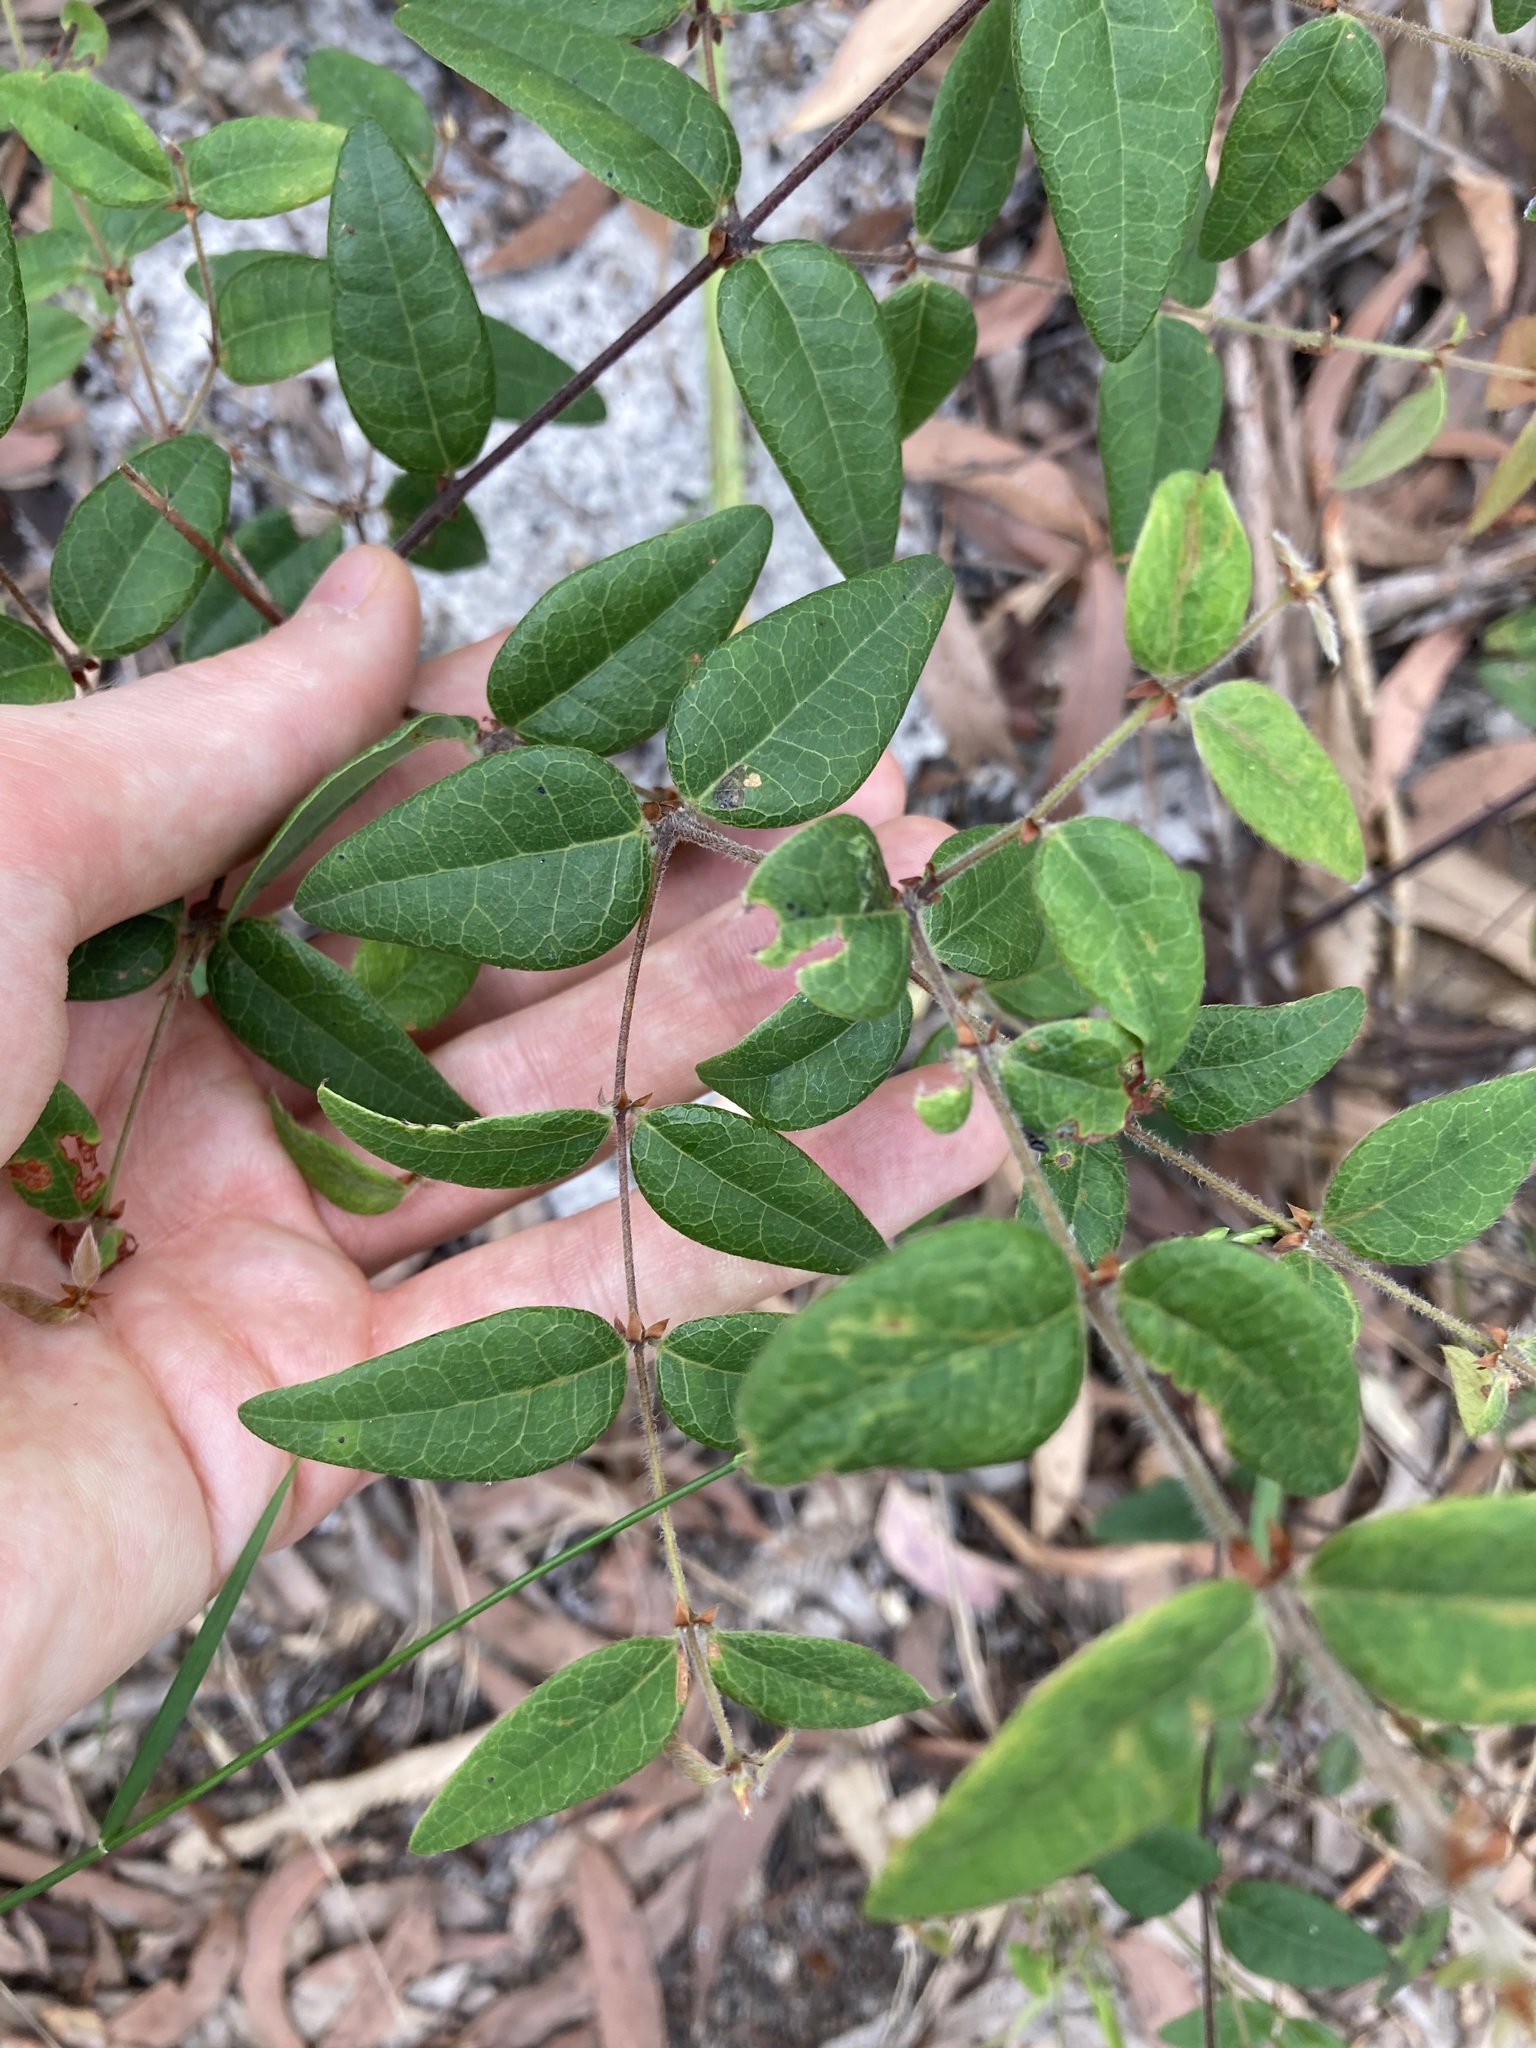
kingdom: Plantae
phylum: Tracheophyta
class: Magnoliopsida
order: Fabales
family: Fabaceae
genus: Platylobium
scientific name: Platylobium formosum
